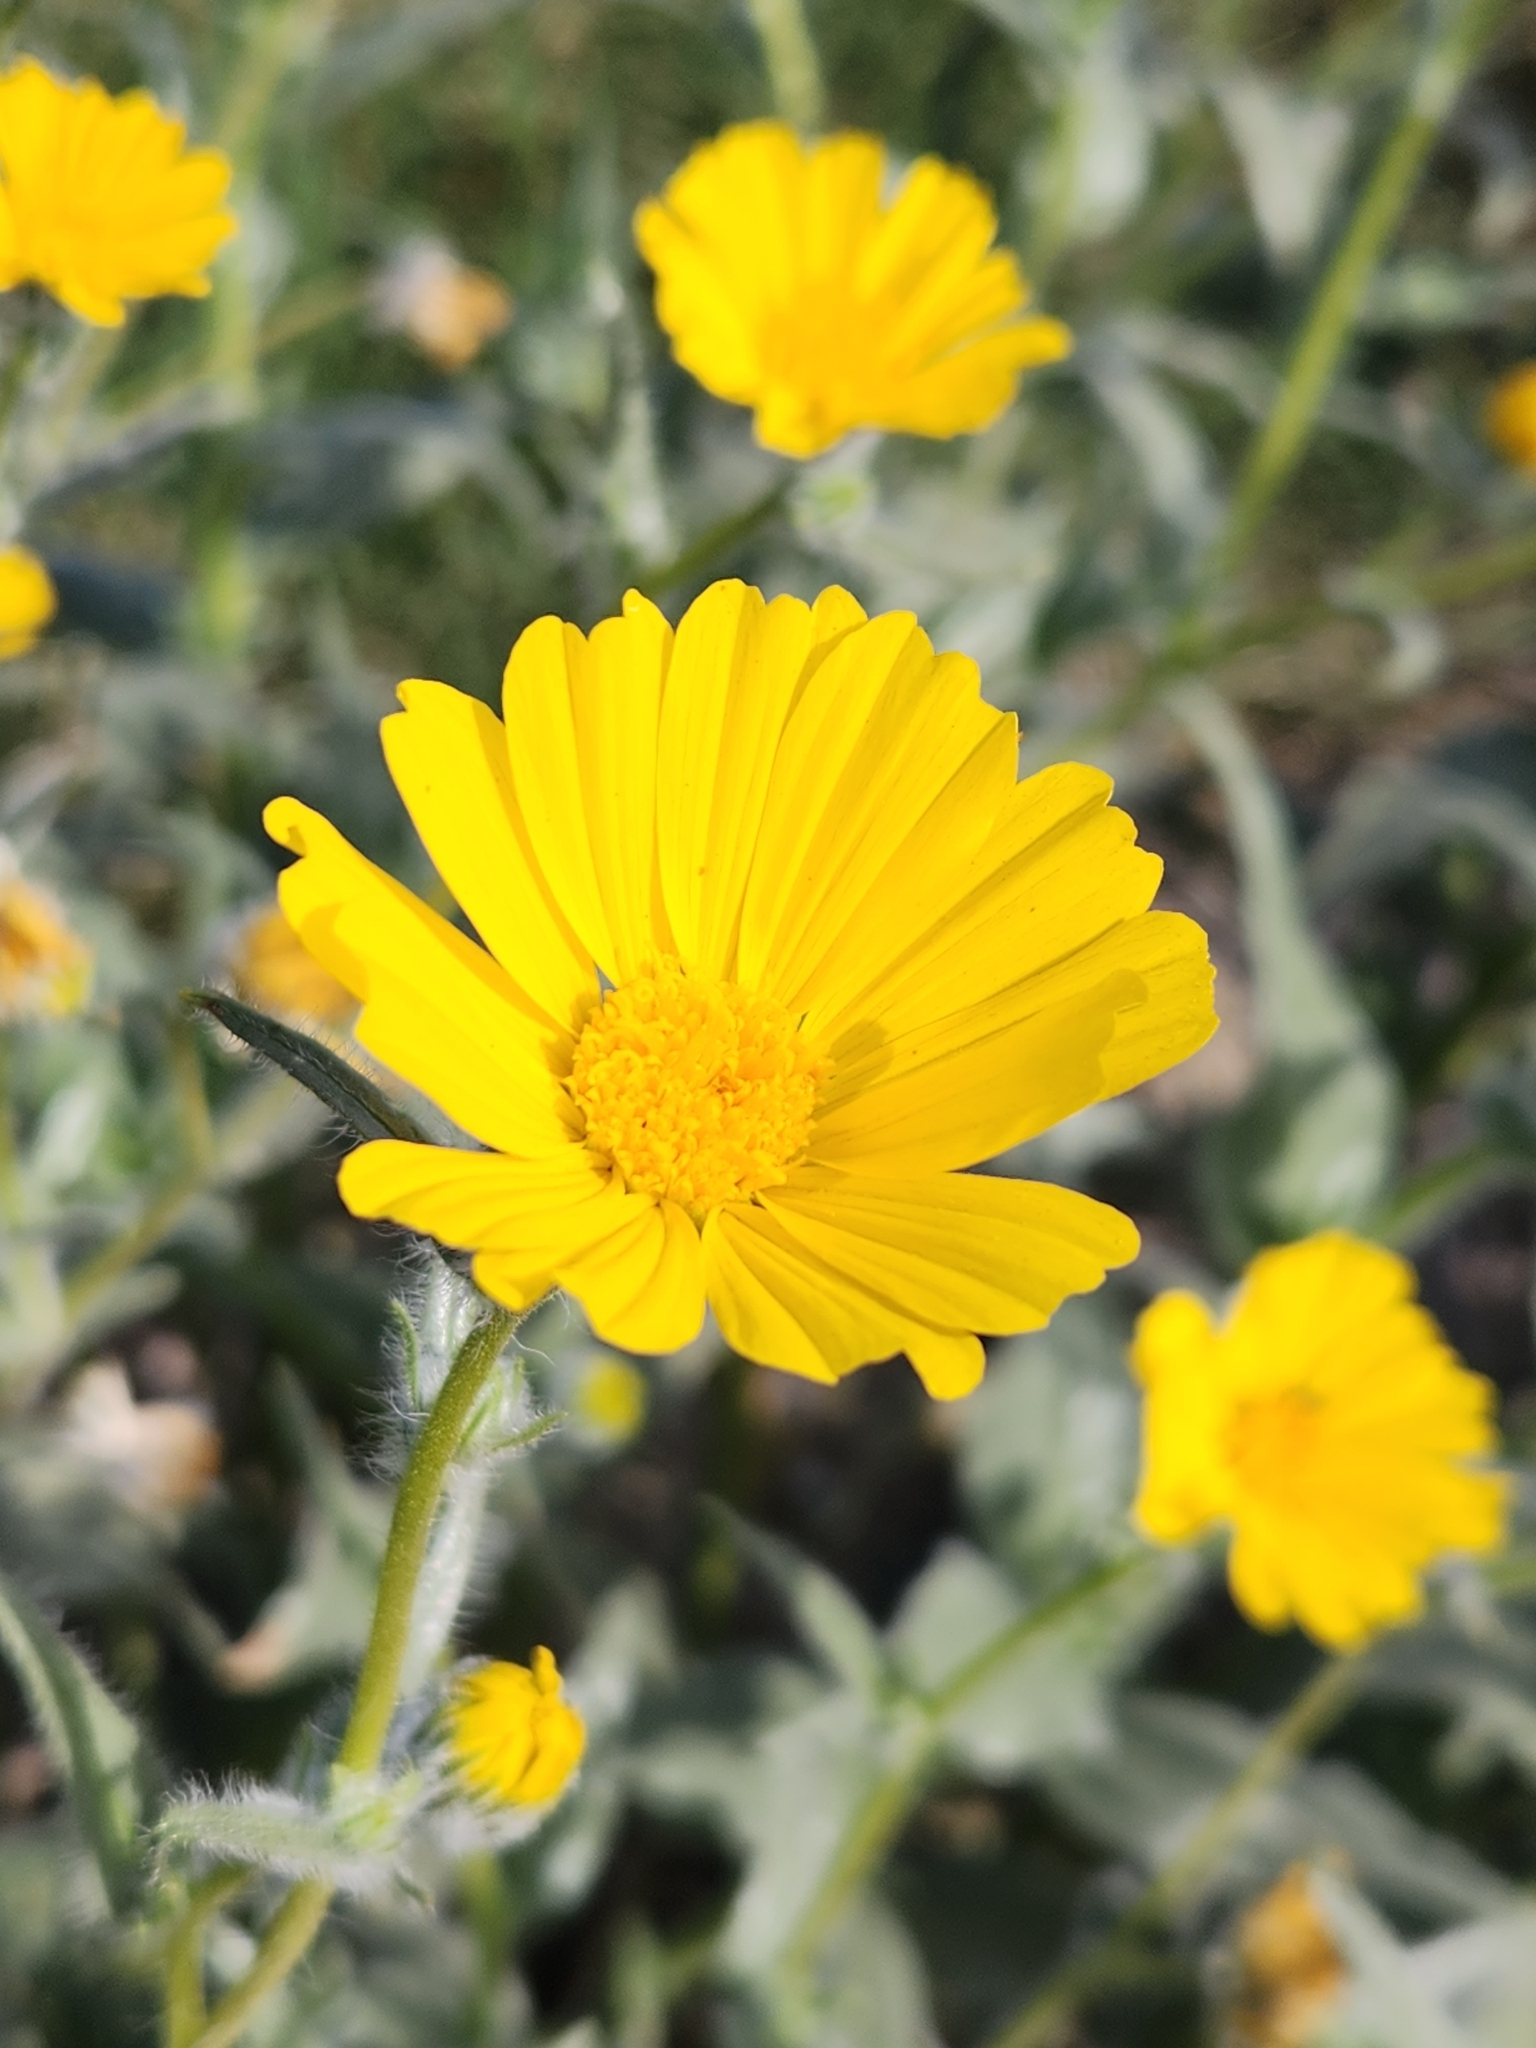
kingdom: Plantae
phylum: Tracheophyta
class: Magnoliopsida
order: Asterales
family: Asteraceae
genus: Geraea
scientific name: Geraea canescens
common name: Desert-gold
